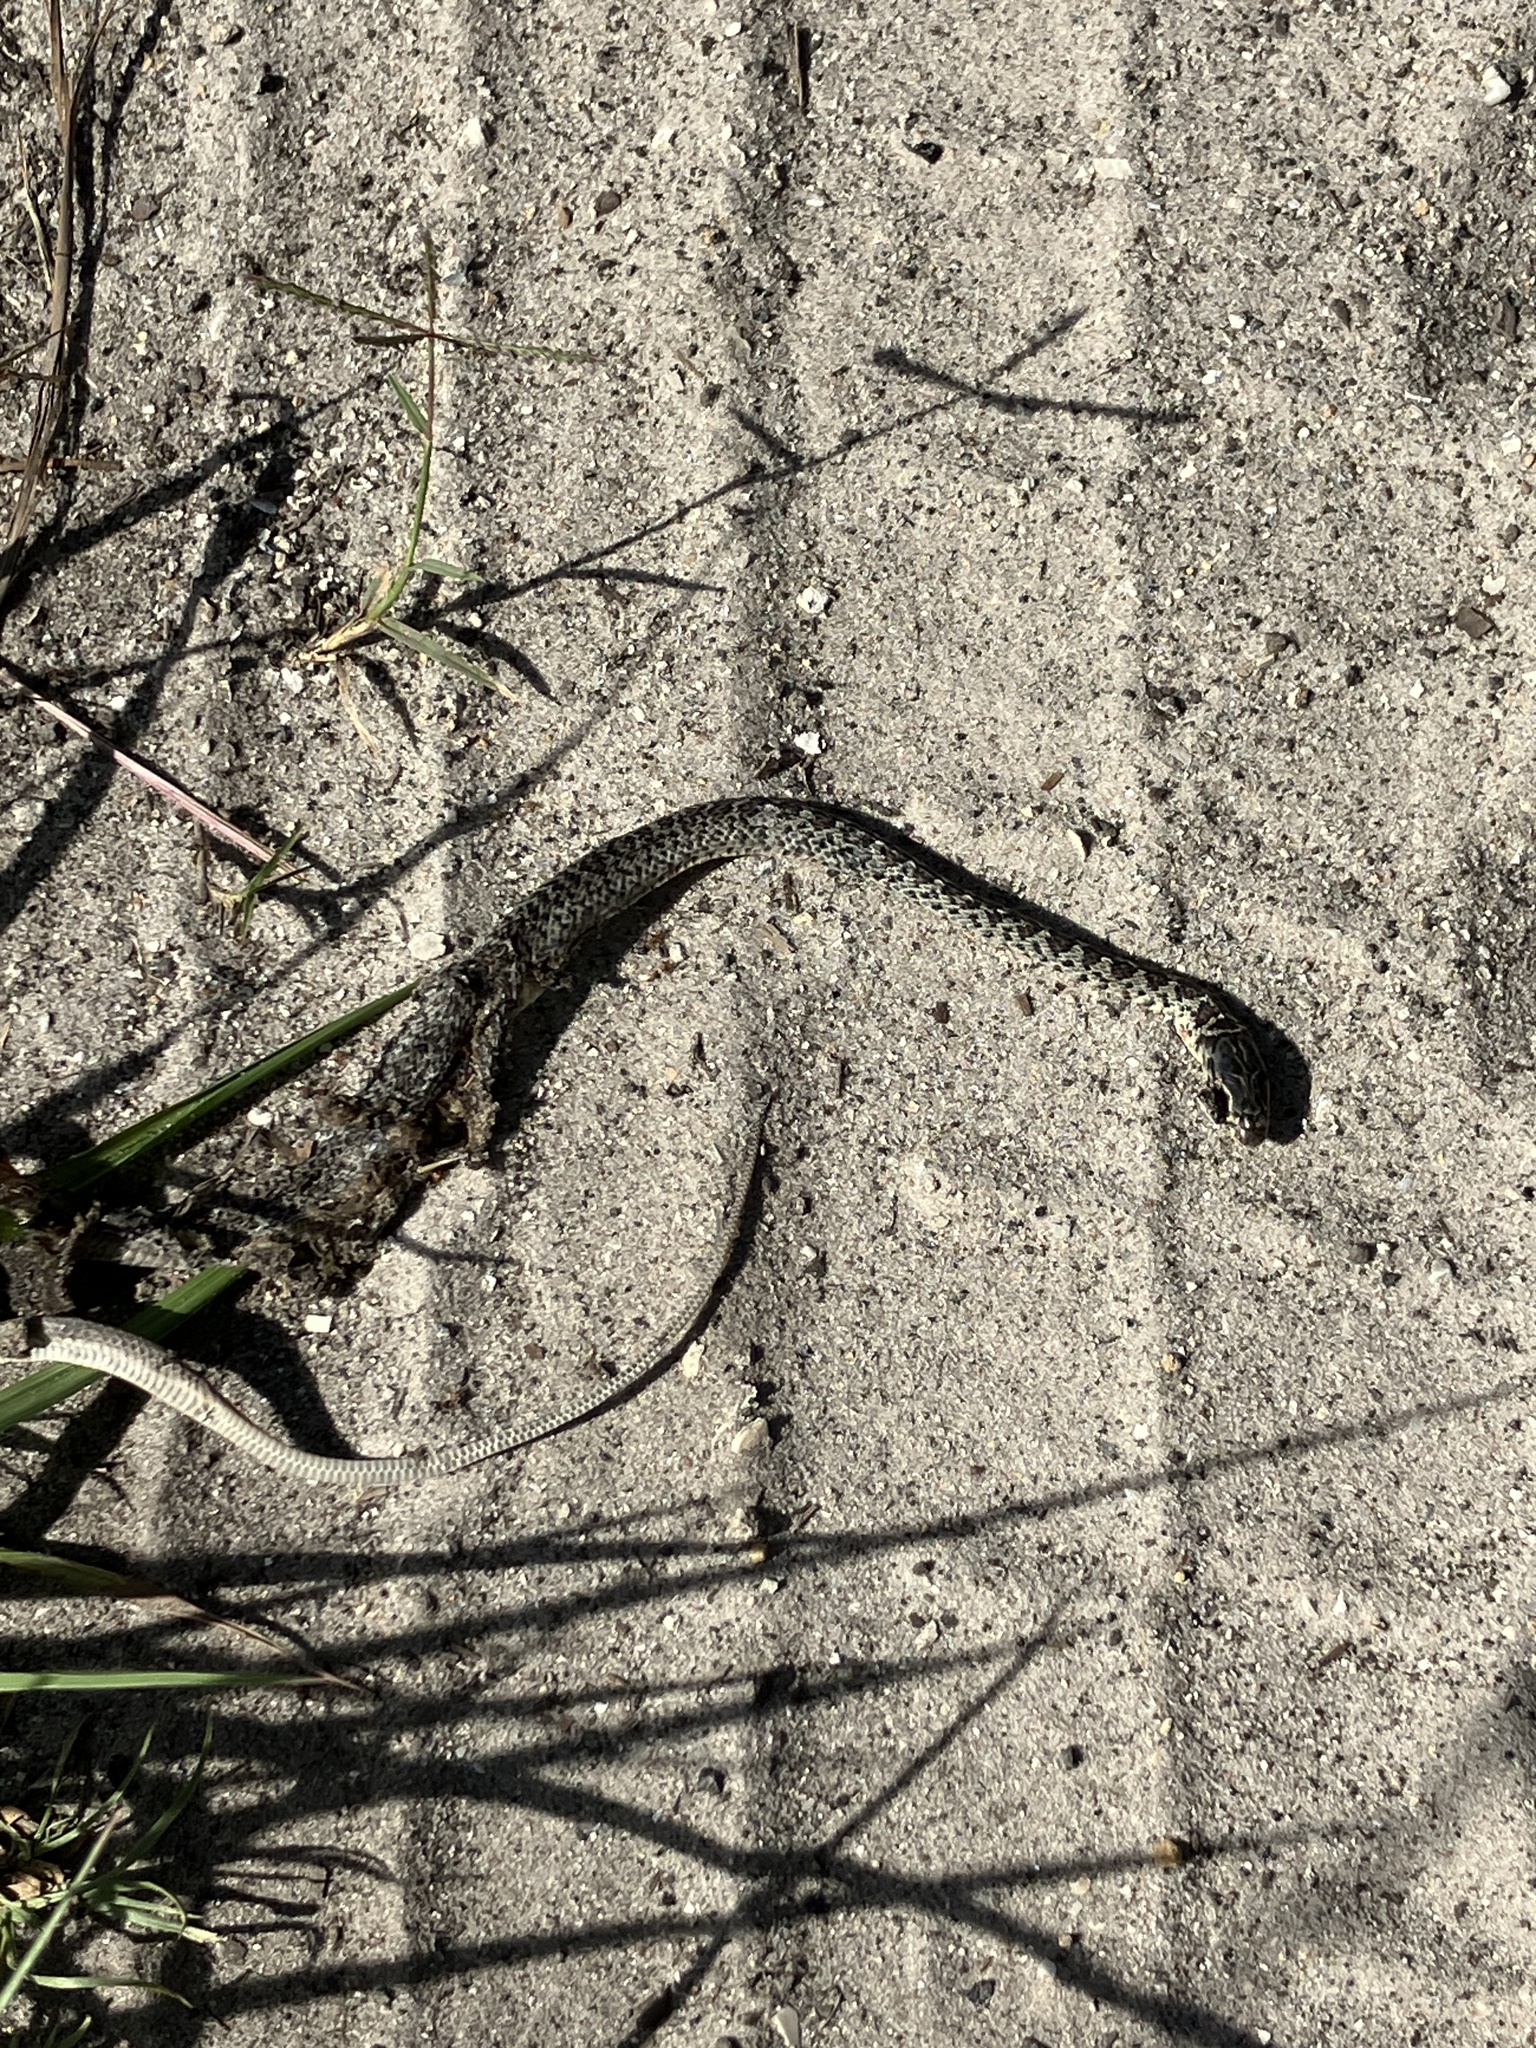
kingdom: Animalia
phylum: Chordata
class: Squamata
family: Colubridae
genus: Coluber
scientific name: Coluber constrictor
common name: Eastern racer
